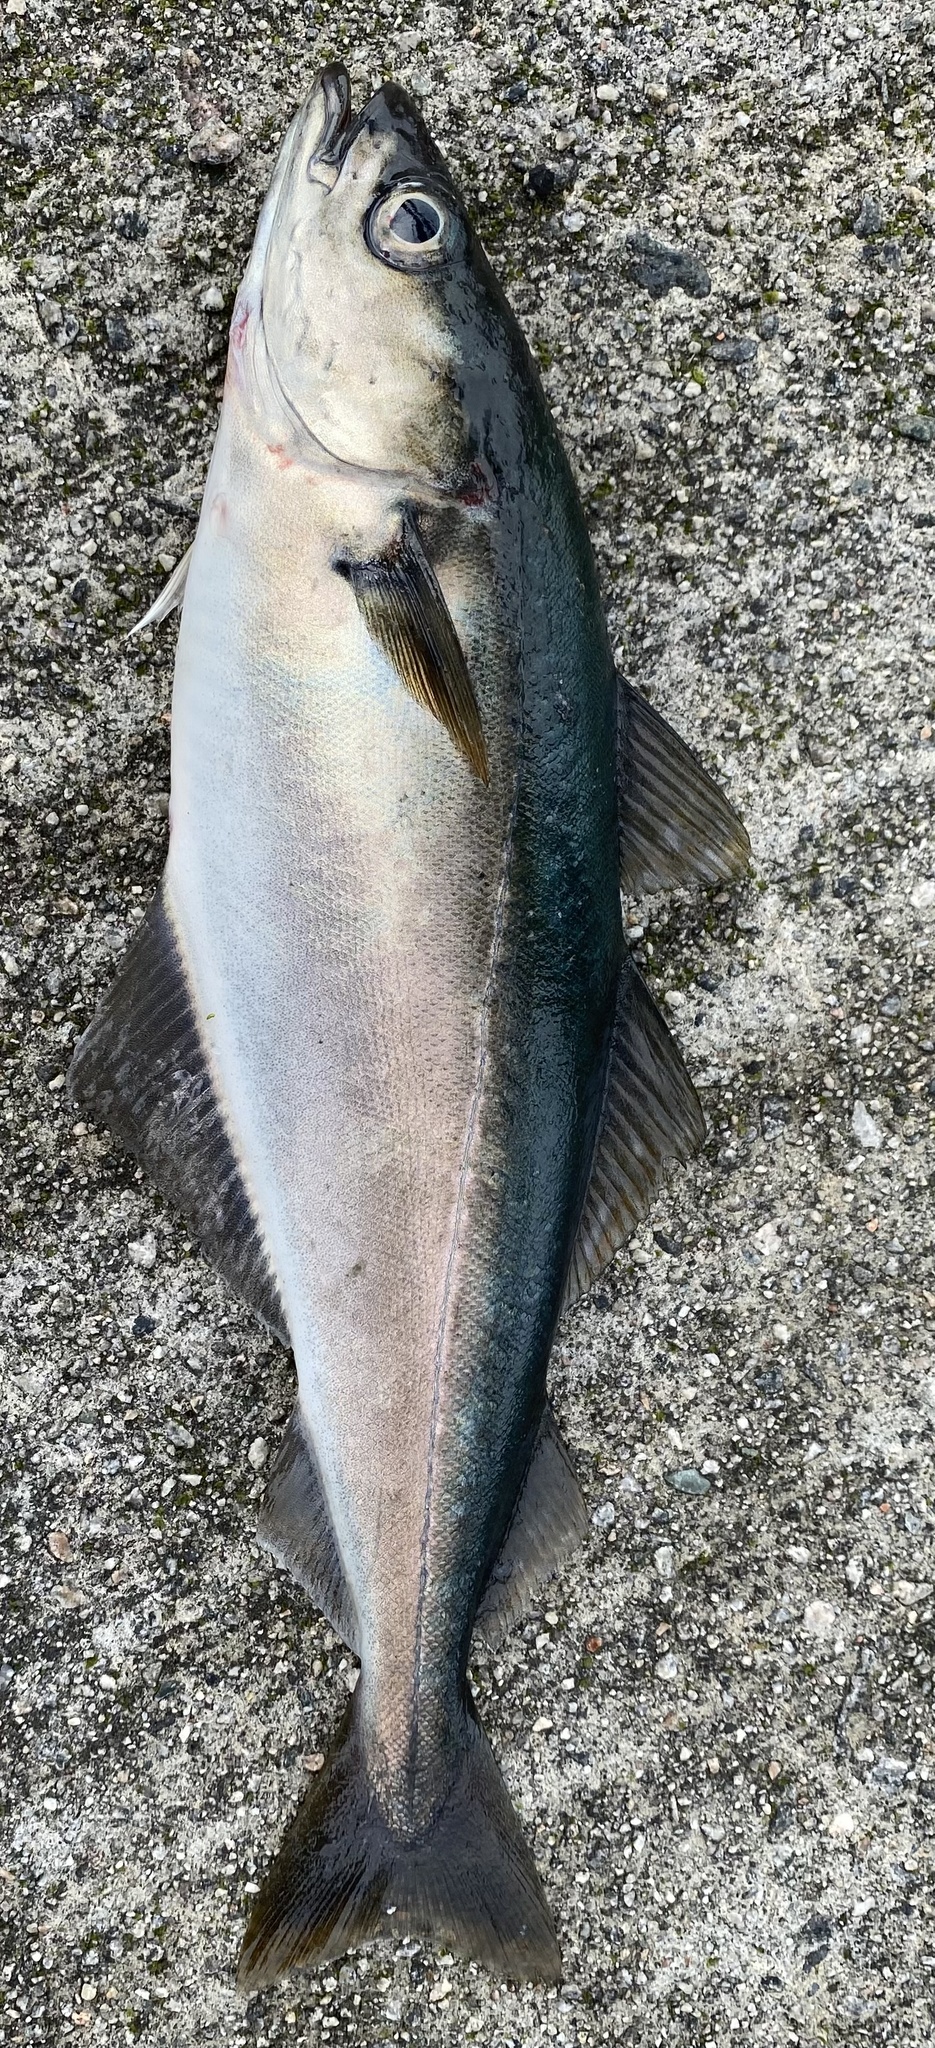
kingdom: Animalia
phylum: Chordata
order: Gadiformes
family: Gadidae
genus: Pollachius
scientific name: Pollachius virens
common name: Saithe
